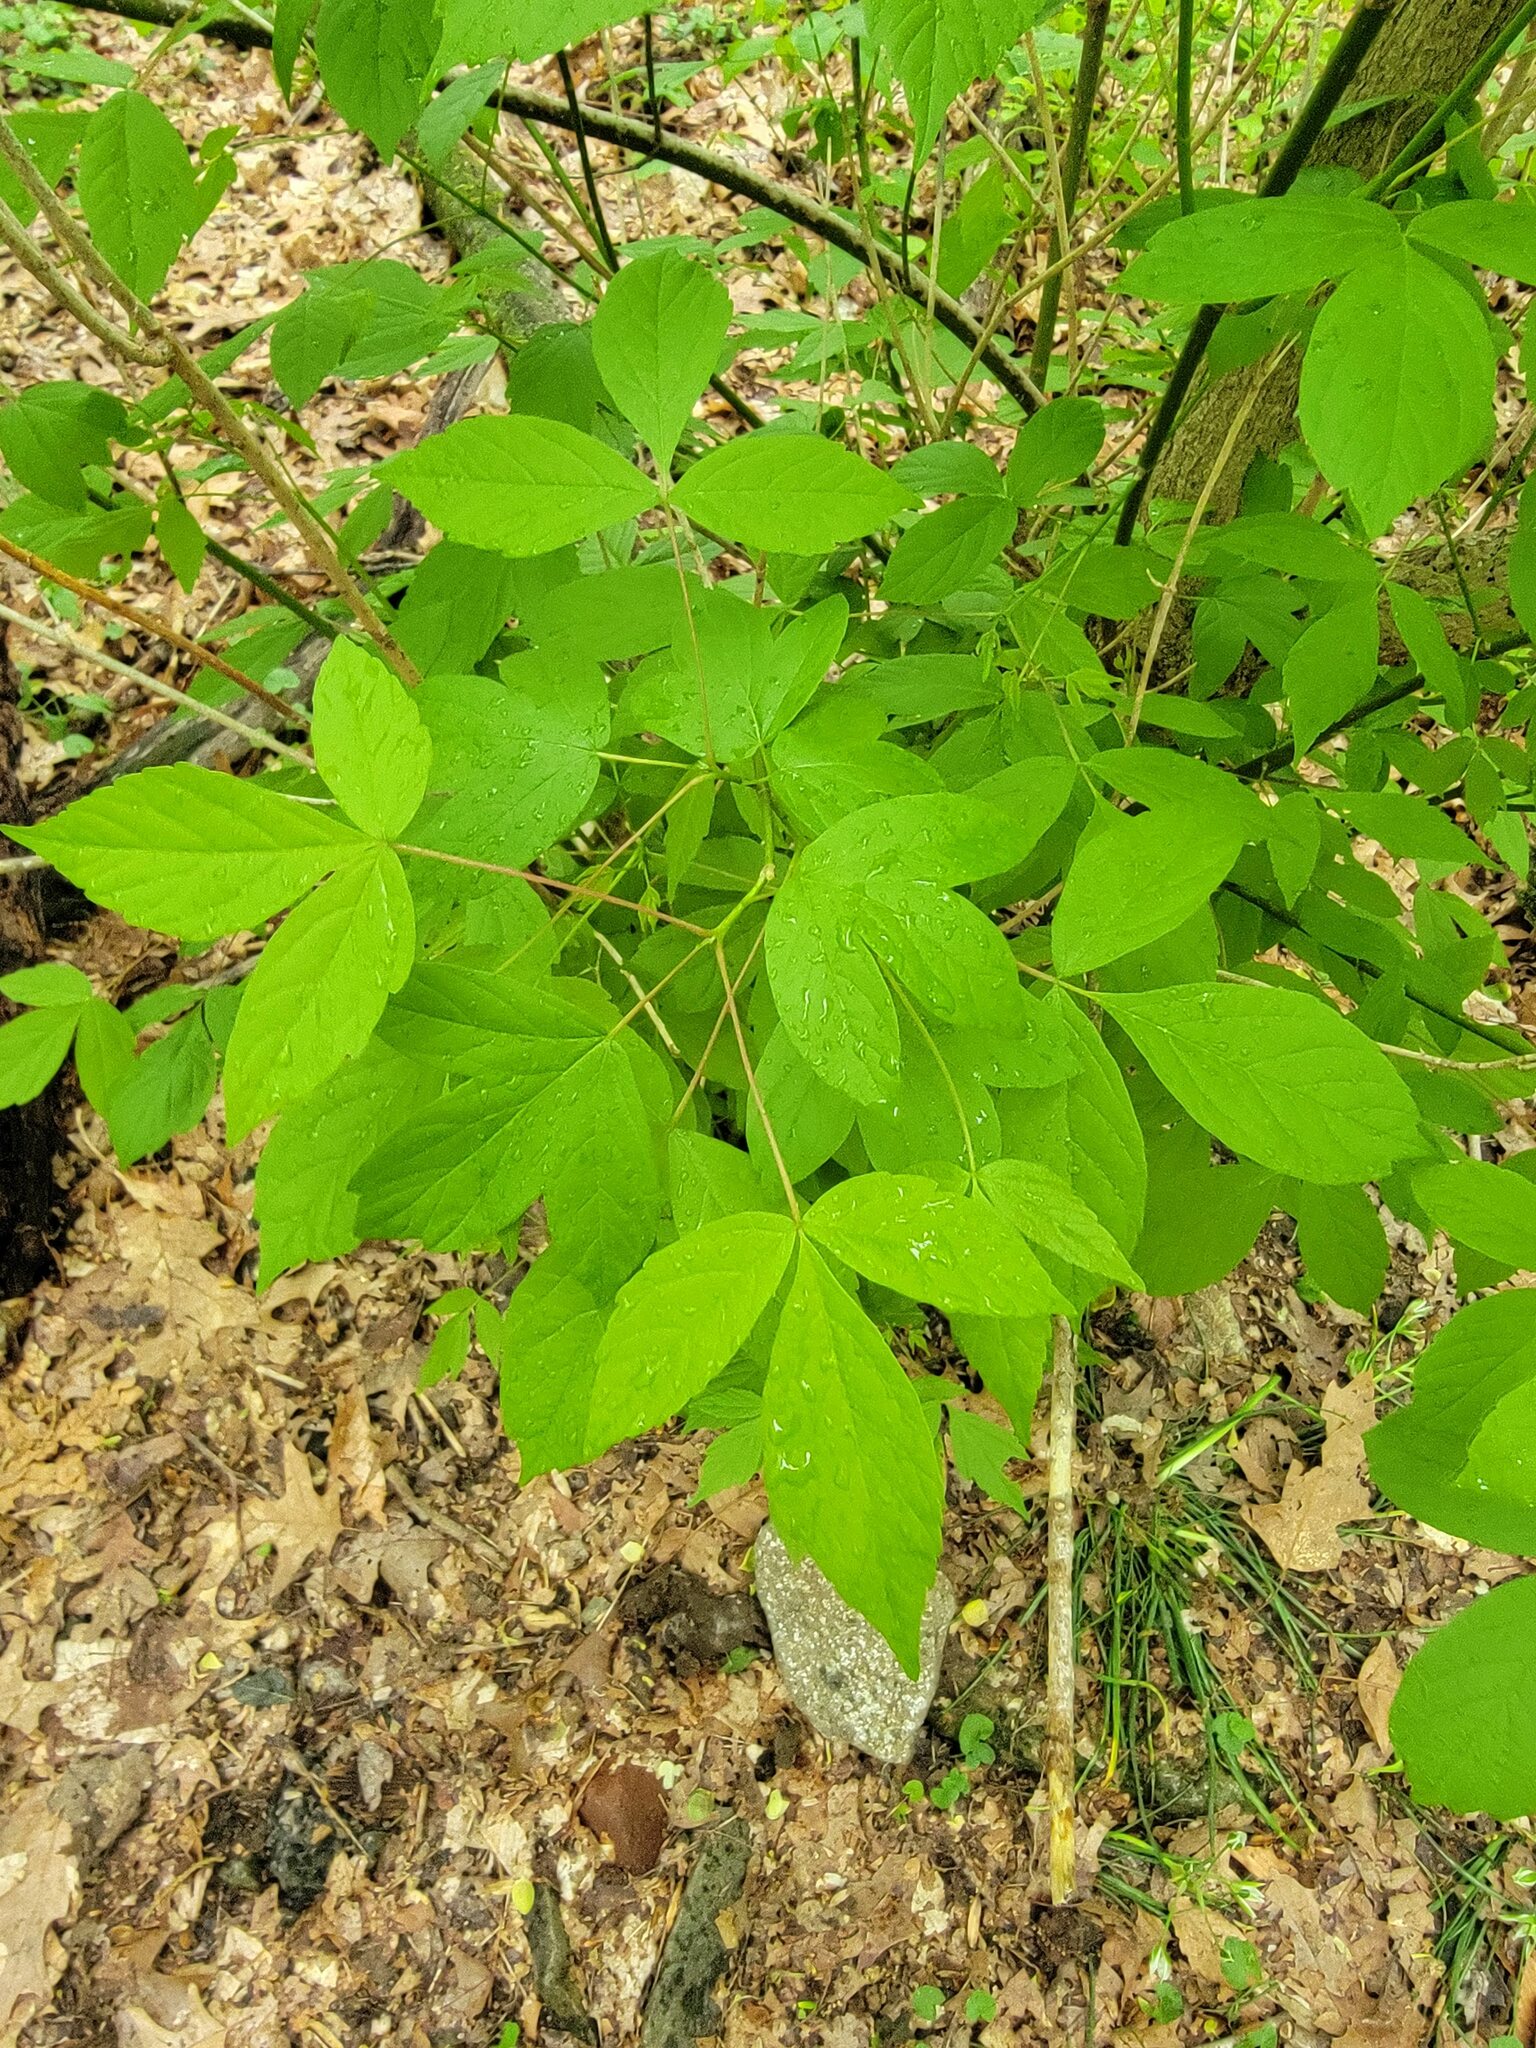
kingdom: Plantae
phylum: Tracheophyta
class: Magnoliopsida
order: Sapindales
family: Sapindaceae
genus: Acer
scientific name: Acer negundo
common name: Ashleaf maple
